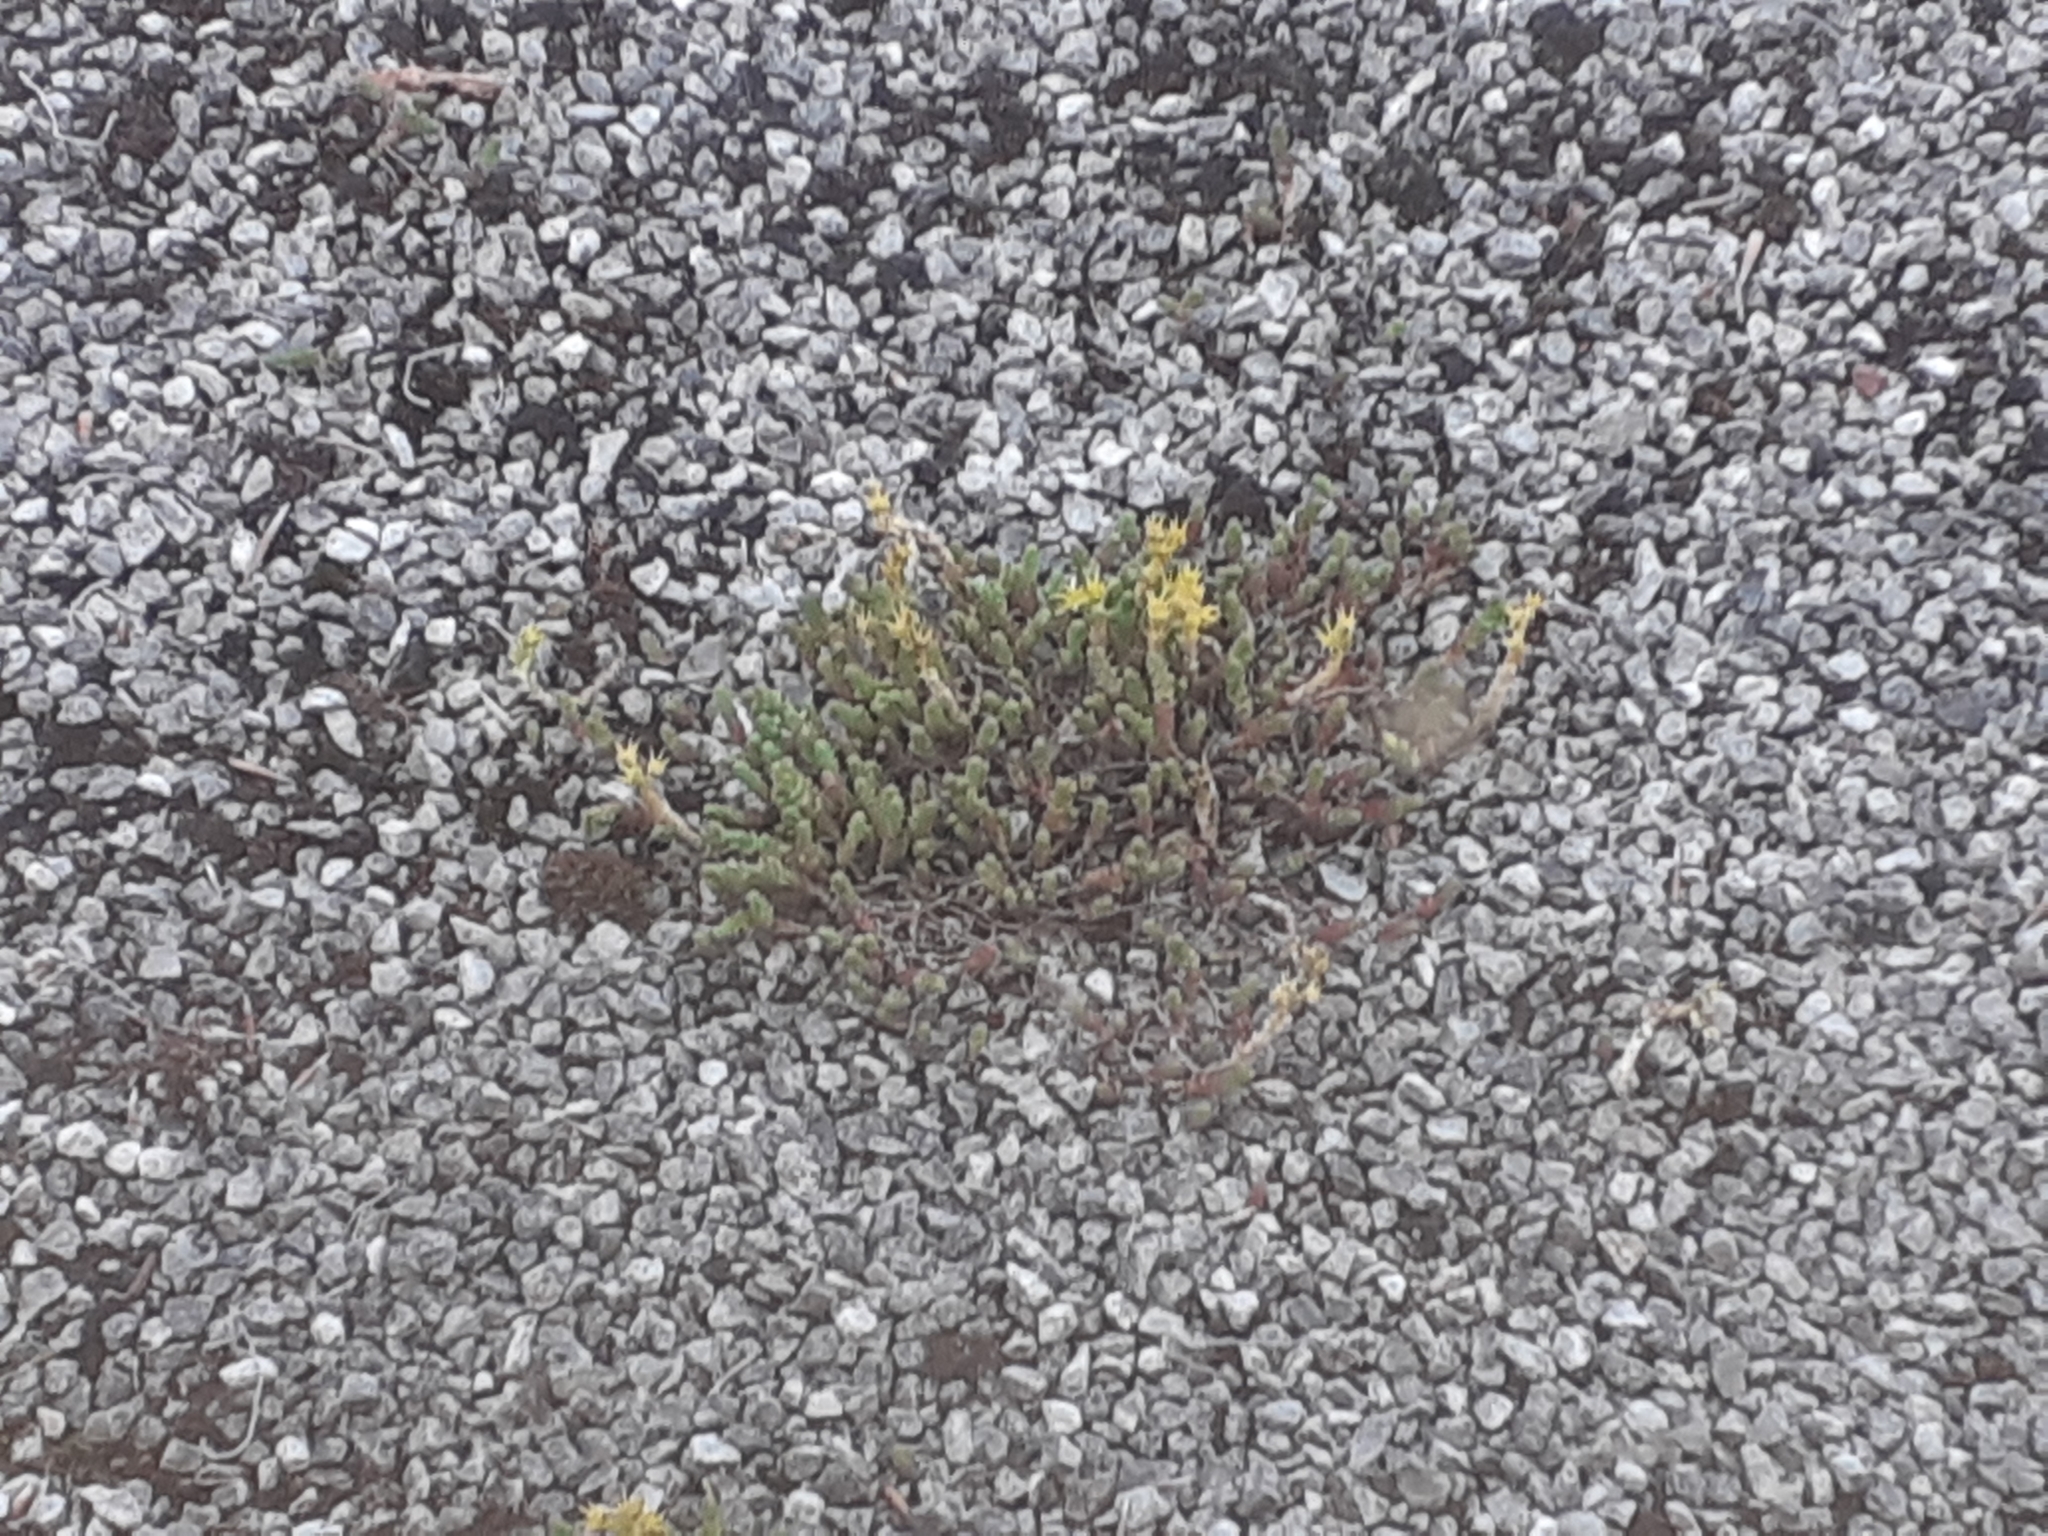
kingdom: Plantae
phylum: Tracheophyta
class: Magnoliopsida
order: Saxifragales
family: Crassulaceae
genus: Sedum
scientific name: Sedum acre
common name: Biting stonecrop
